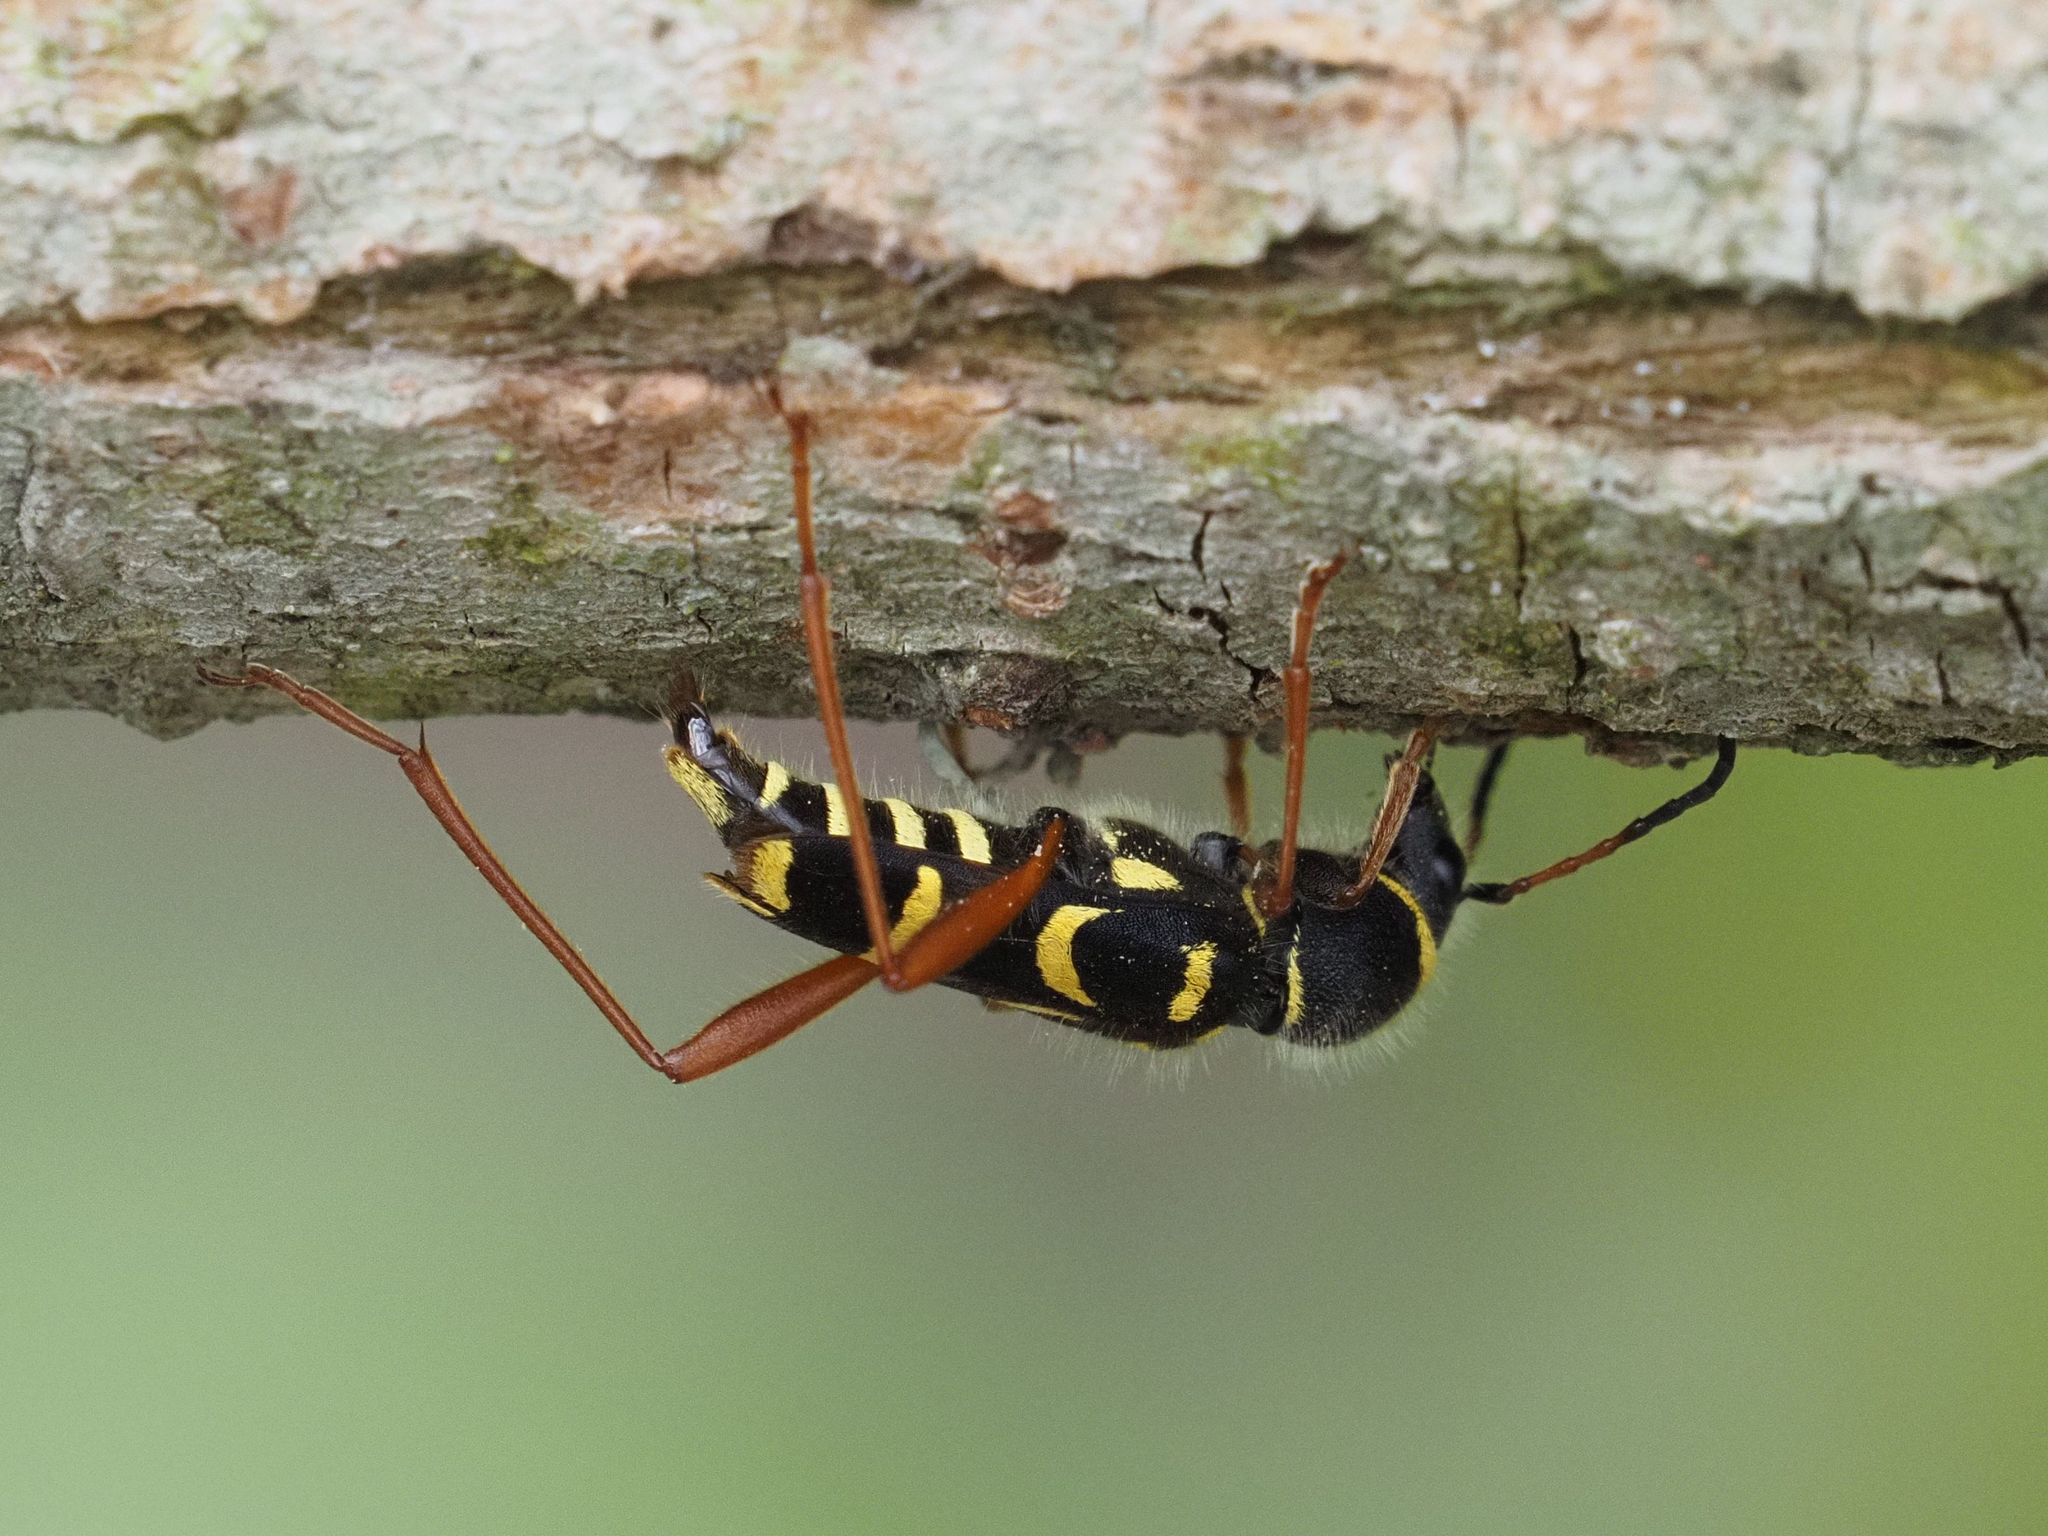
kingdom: Animalia
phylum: Arthropoda
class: Insecta
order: Coleoptera
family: Cerambycidae
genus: Clytus
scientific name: Clytus arietis
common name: Wasp beetle
